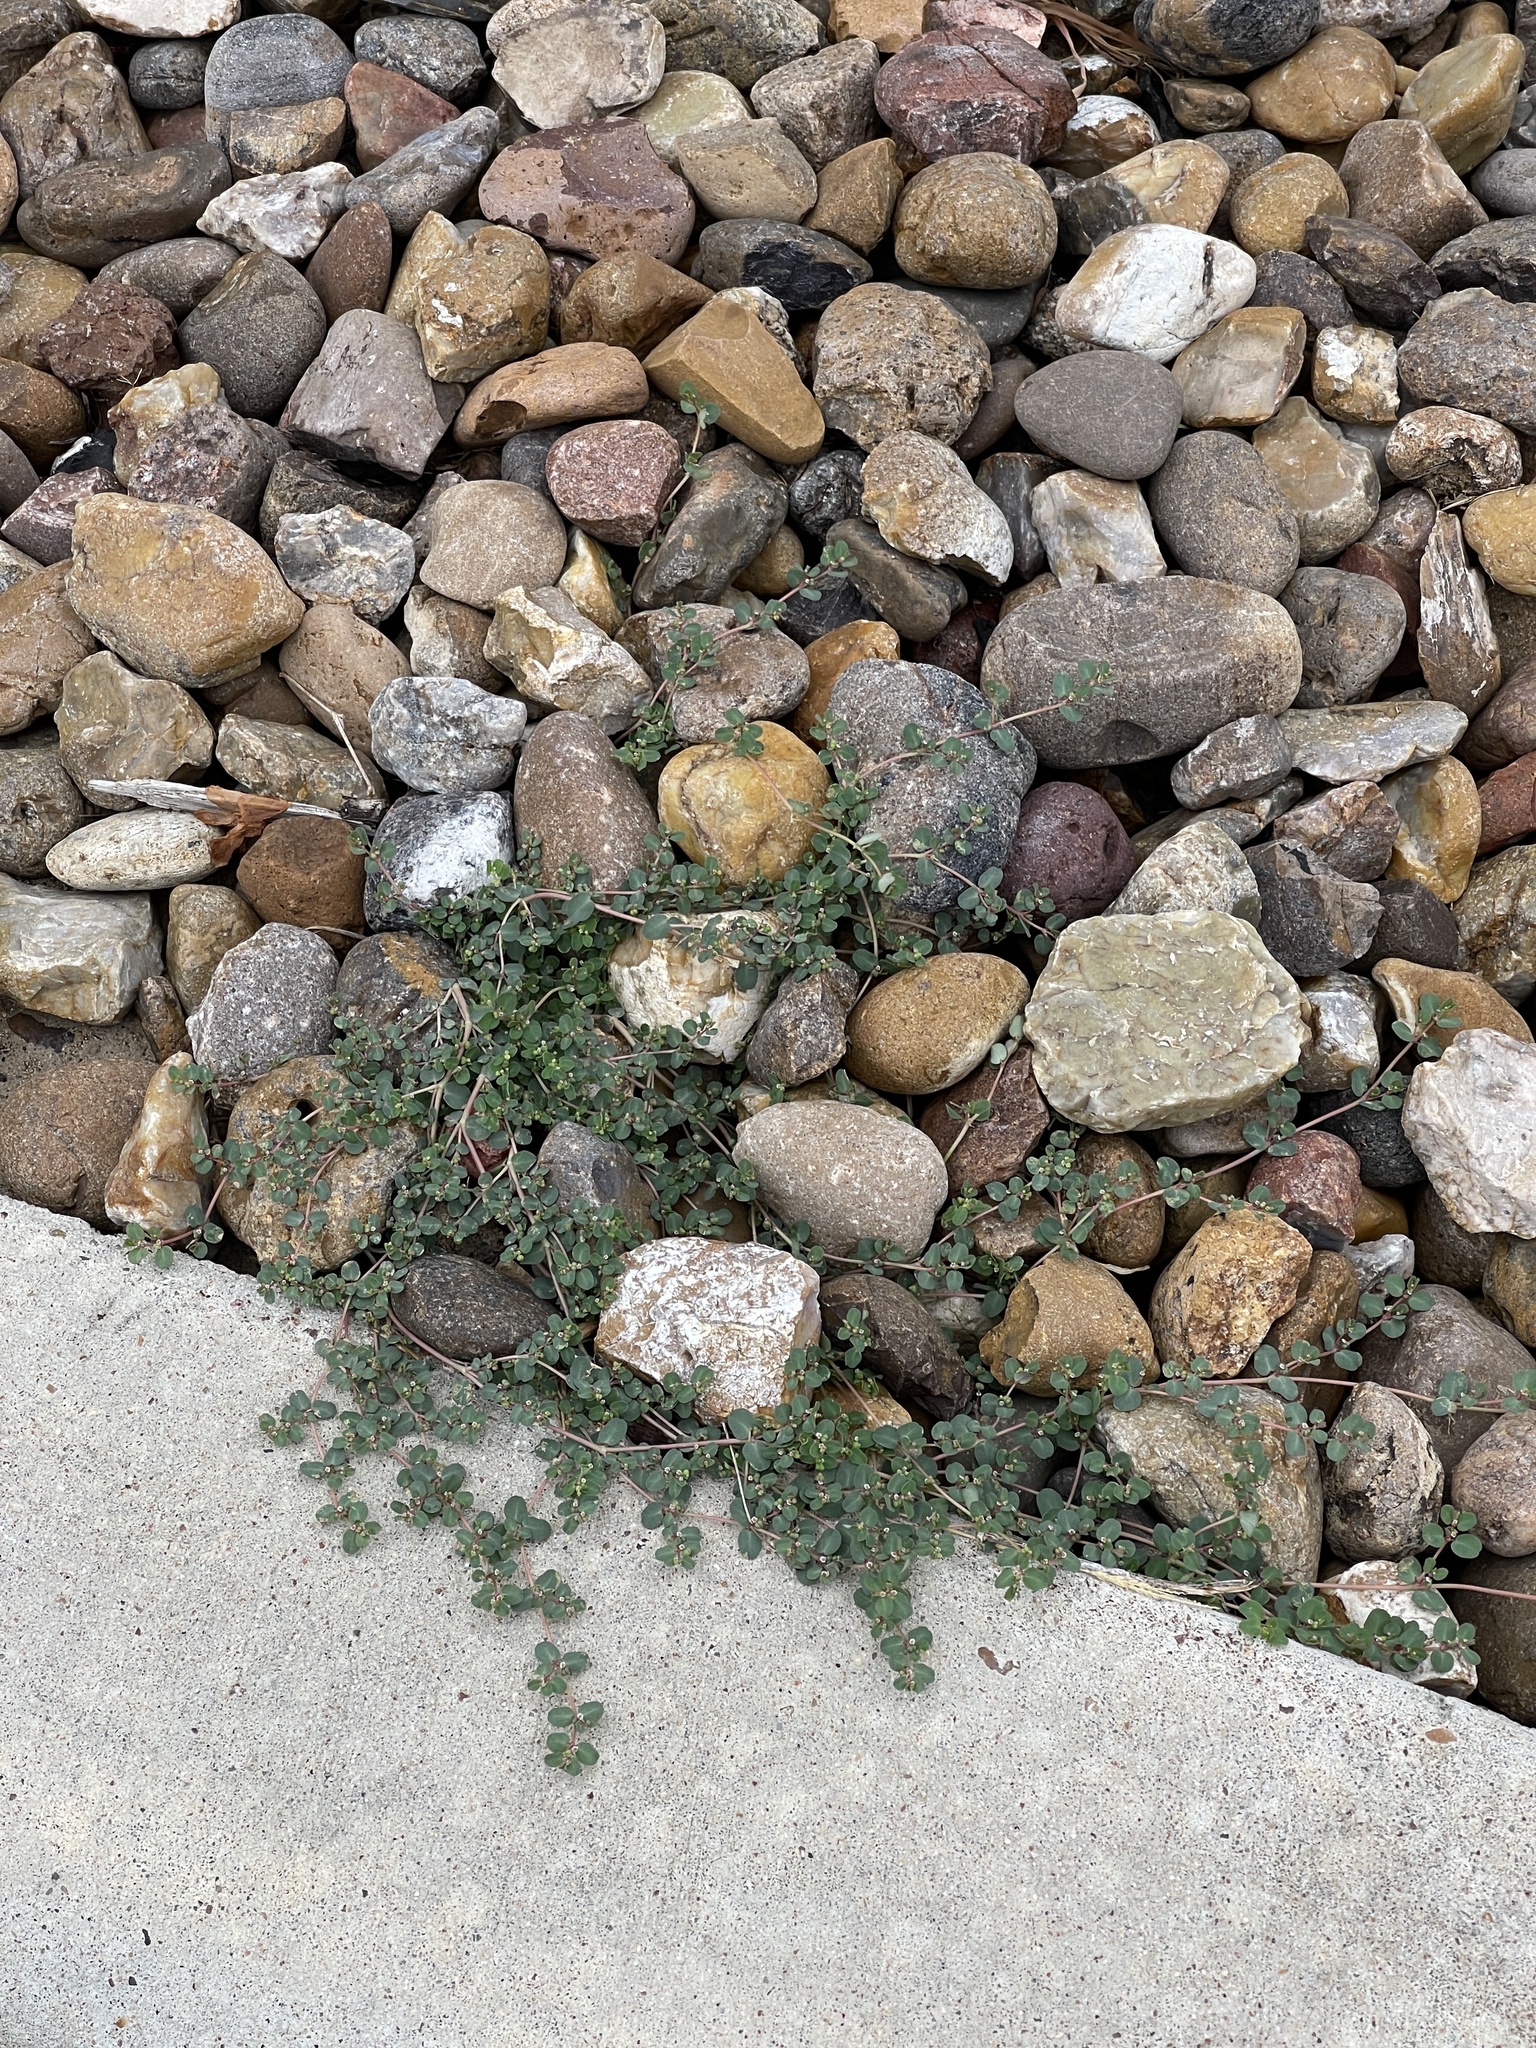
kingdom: Plantae
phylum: Tracheophyta
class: Magnoliopsida
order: Malpighiales
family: Euphorbiaceae
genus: Euphorbia
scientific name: Euphorbia serpens
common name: Matted sandmat
